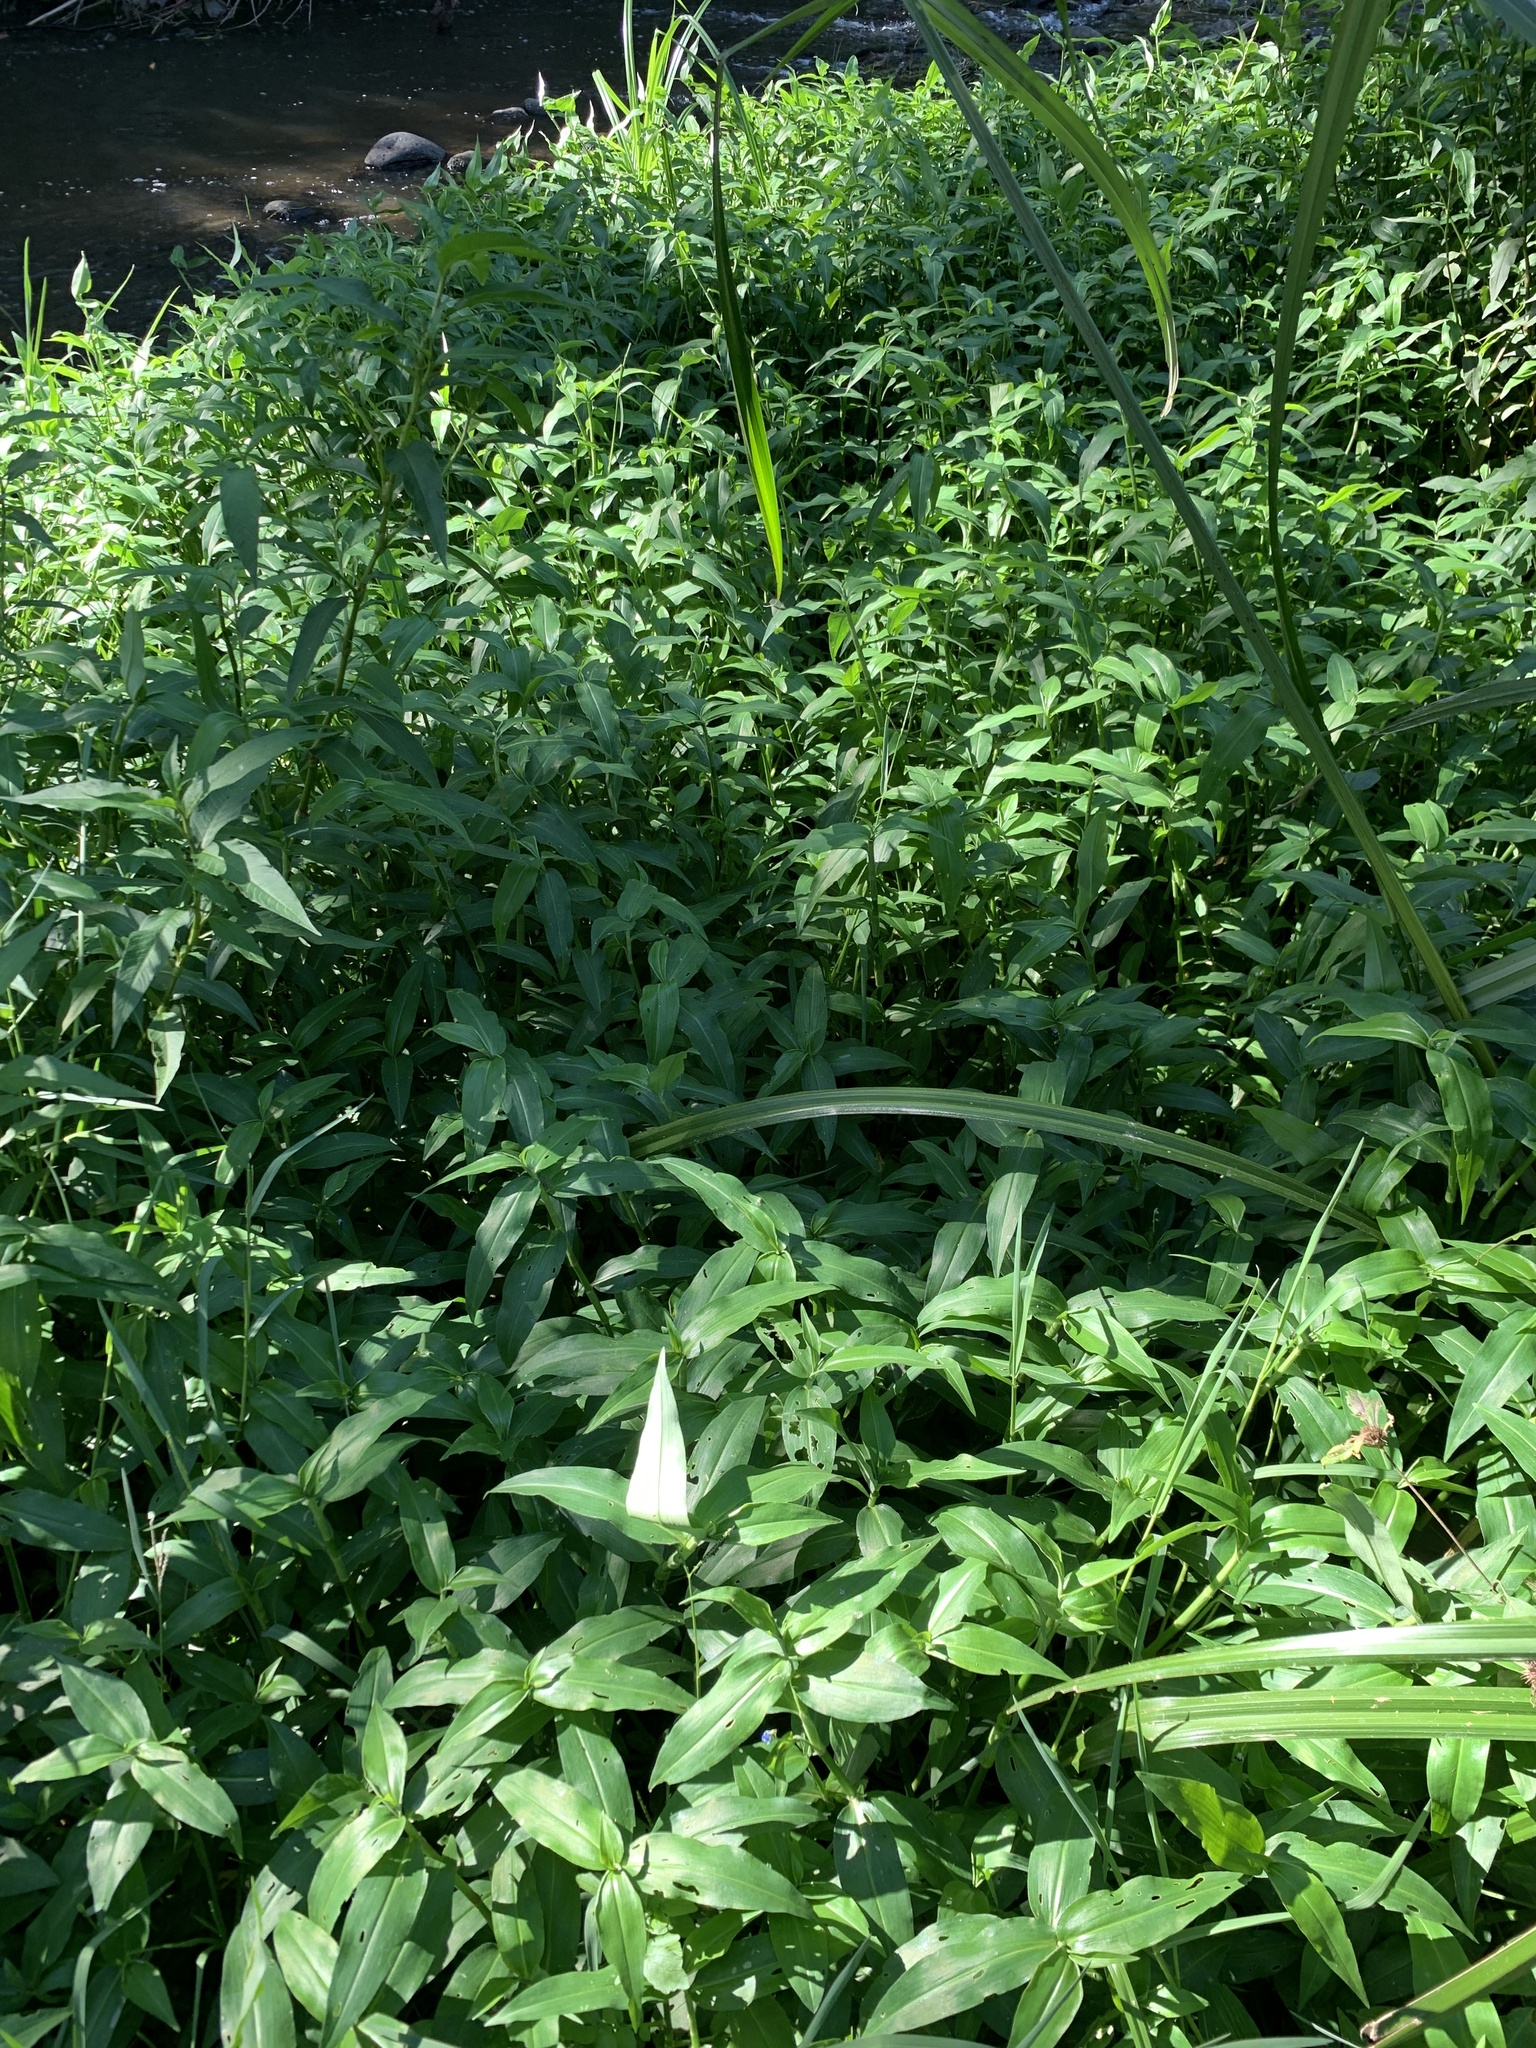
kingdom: Plantae
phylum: Tracheophyta
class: Liliopsida
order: Commelinales
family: Commelinaceae
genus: Commelina
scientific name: Commelina diffusa
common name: Climbing dayflower
